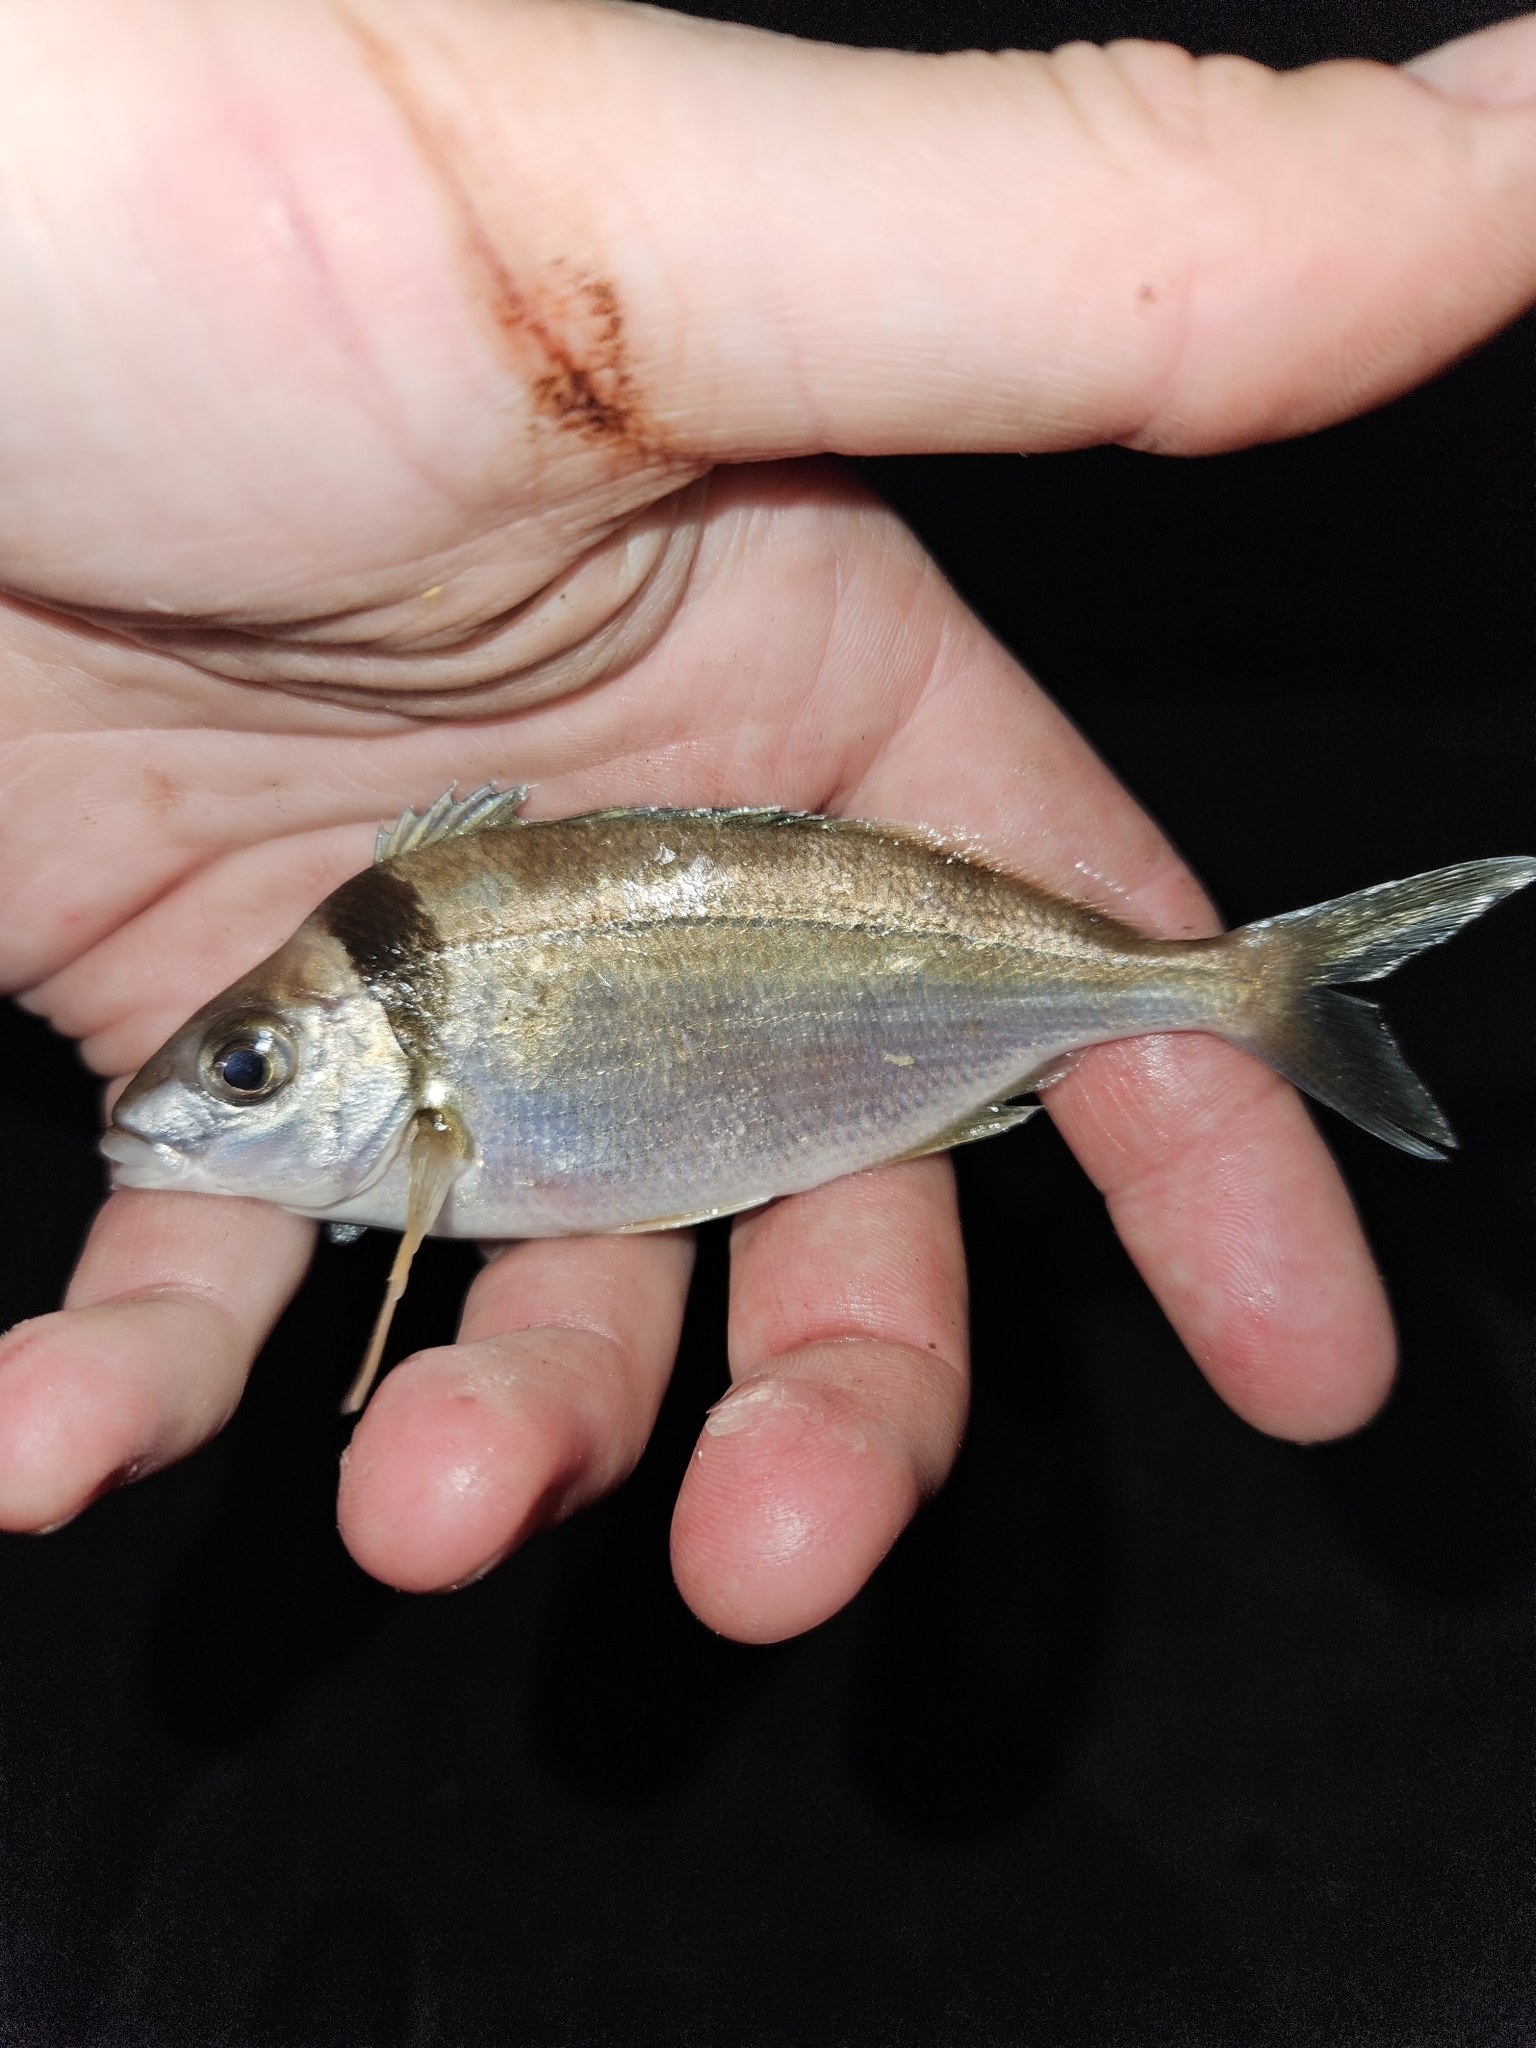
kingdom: Animalia
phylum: Chordata
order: Perciformes
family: Cheilodactylidae
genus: Nemadactylus
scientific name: Nemadactylus macropterus
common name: Tarakihi
